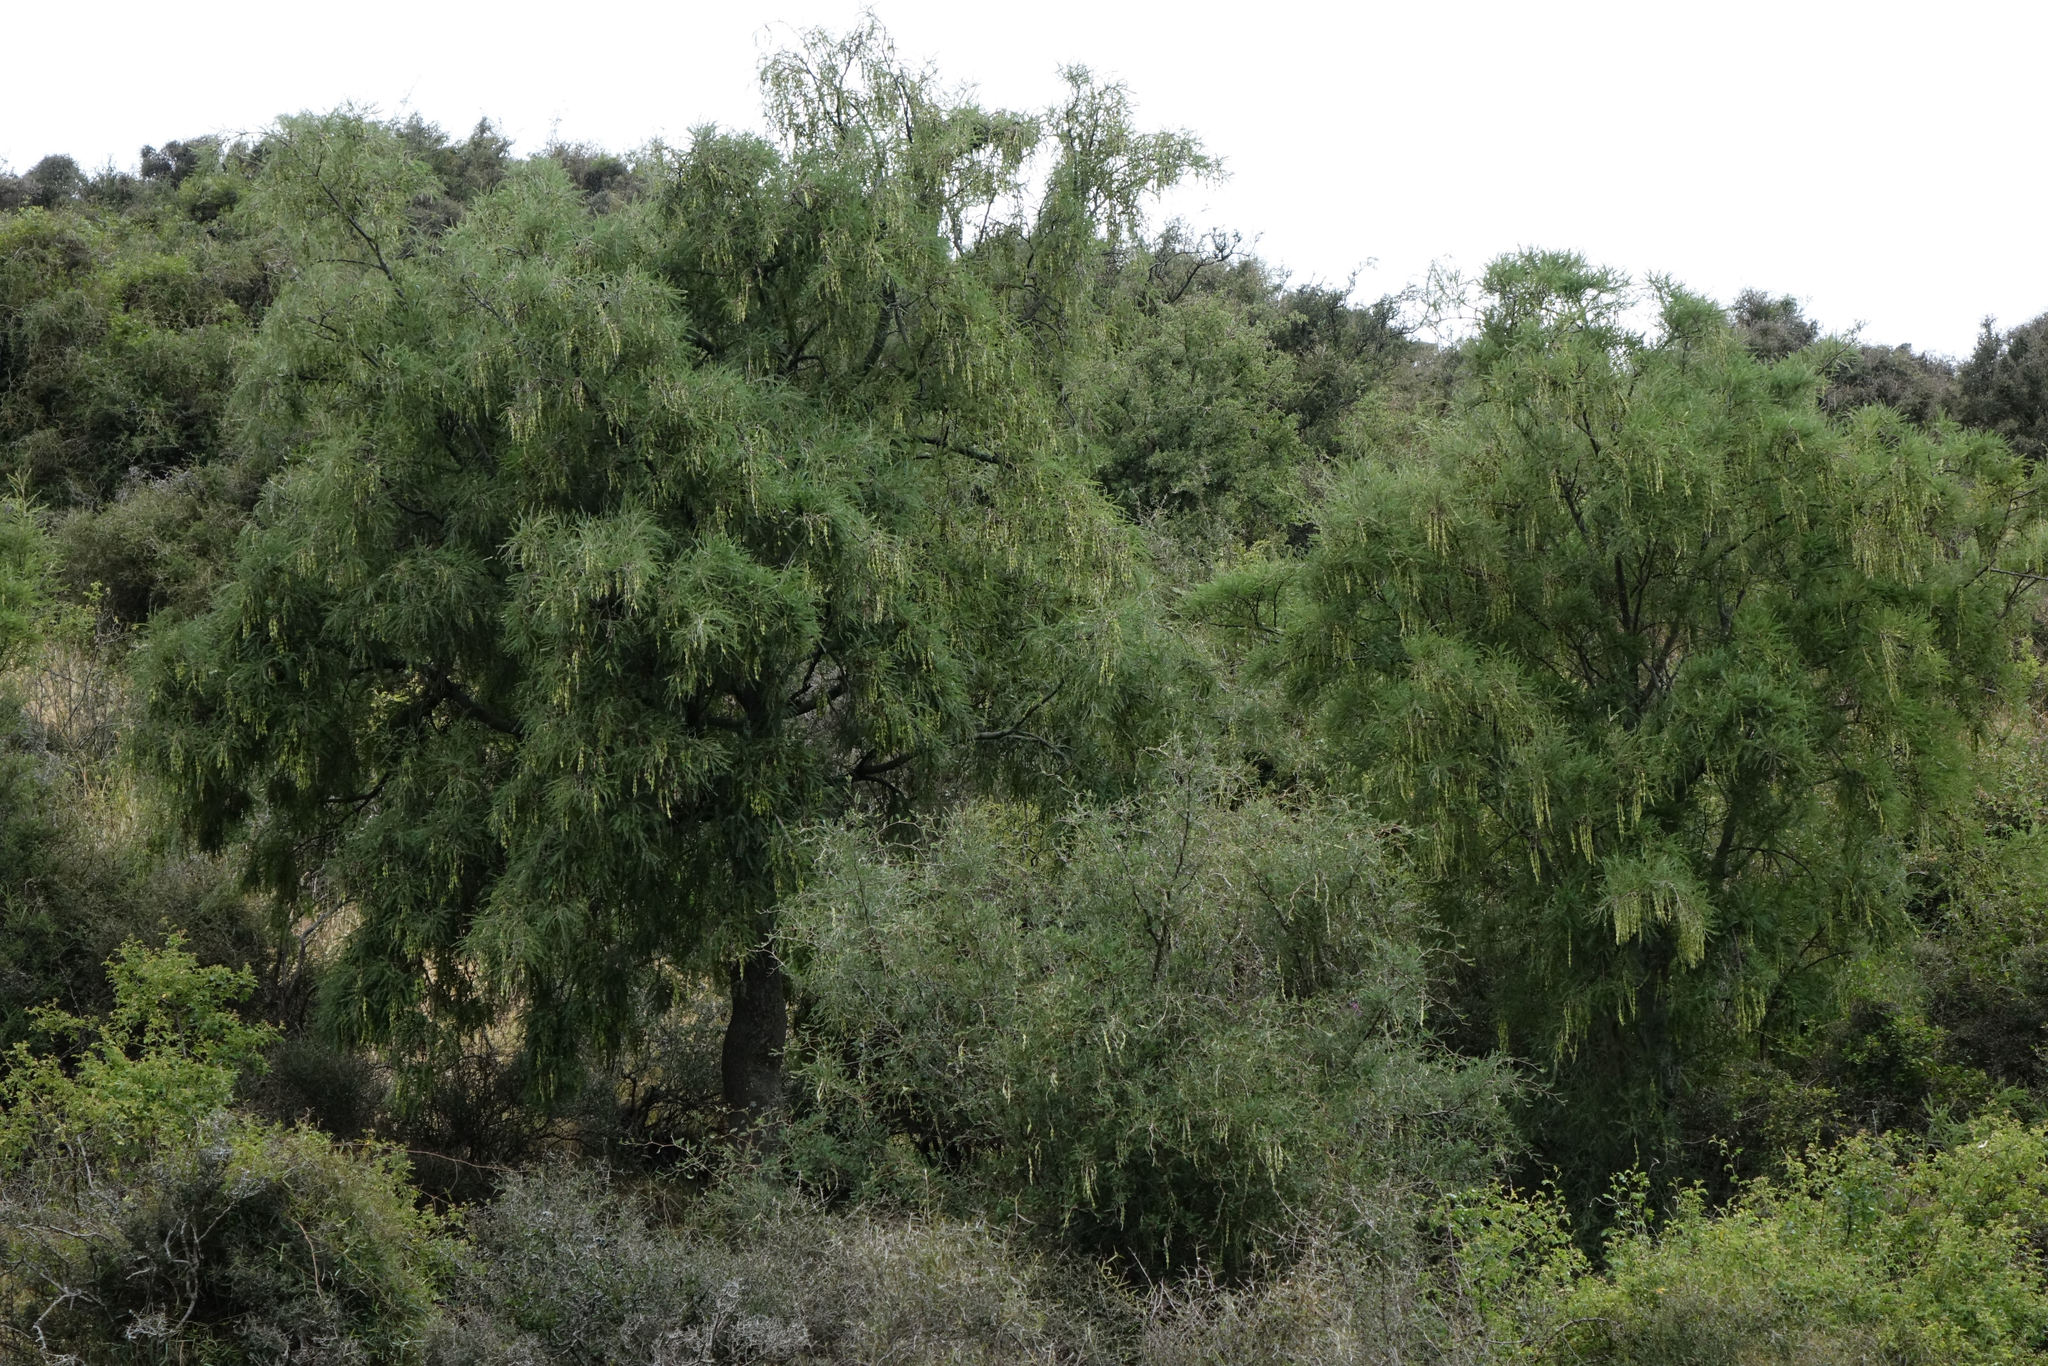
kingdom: Plantae
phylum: Tracheophyta
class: Magnoliopsida
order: Fabales
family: Fabaceae
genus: Sophora
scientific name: Sophora microphylla
